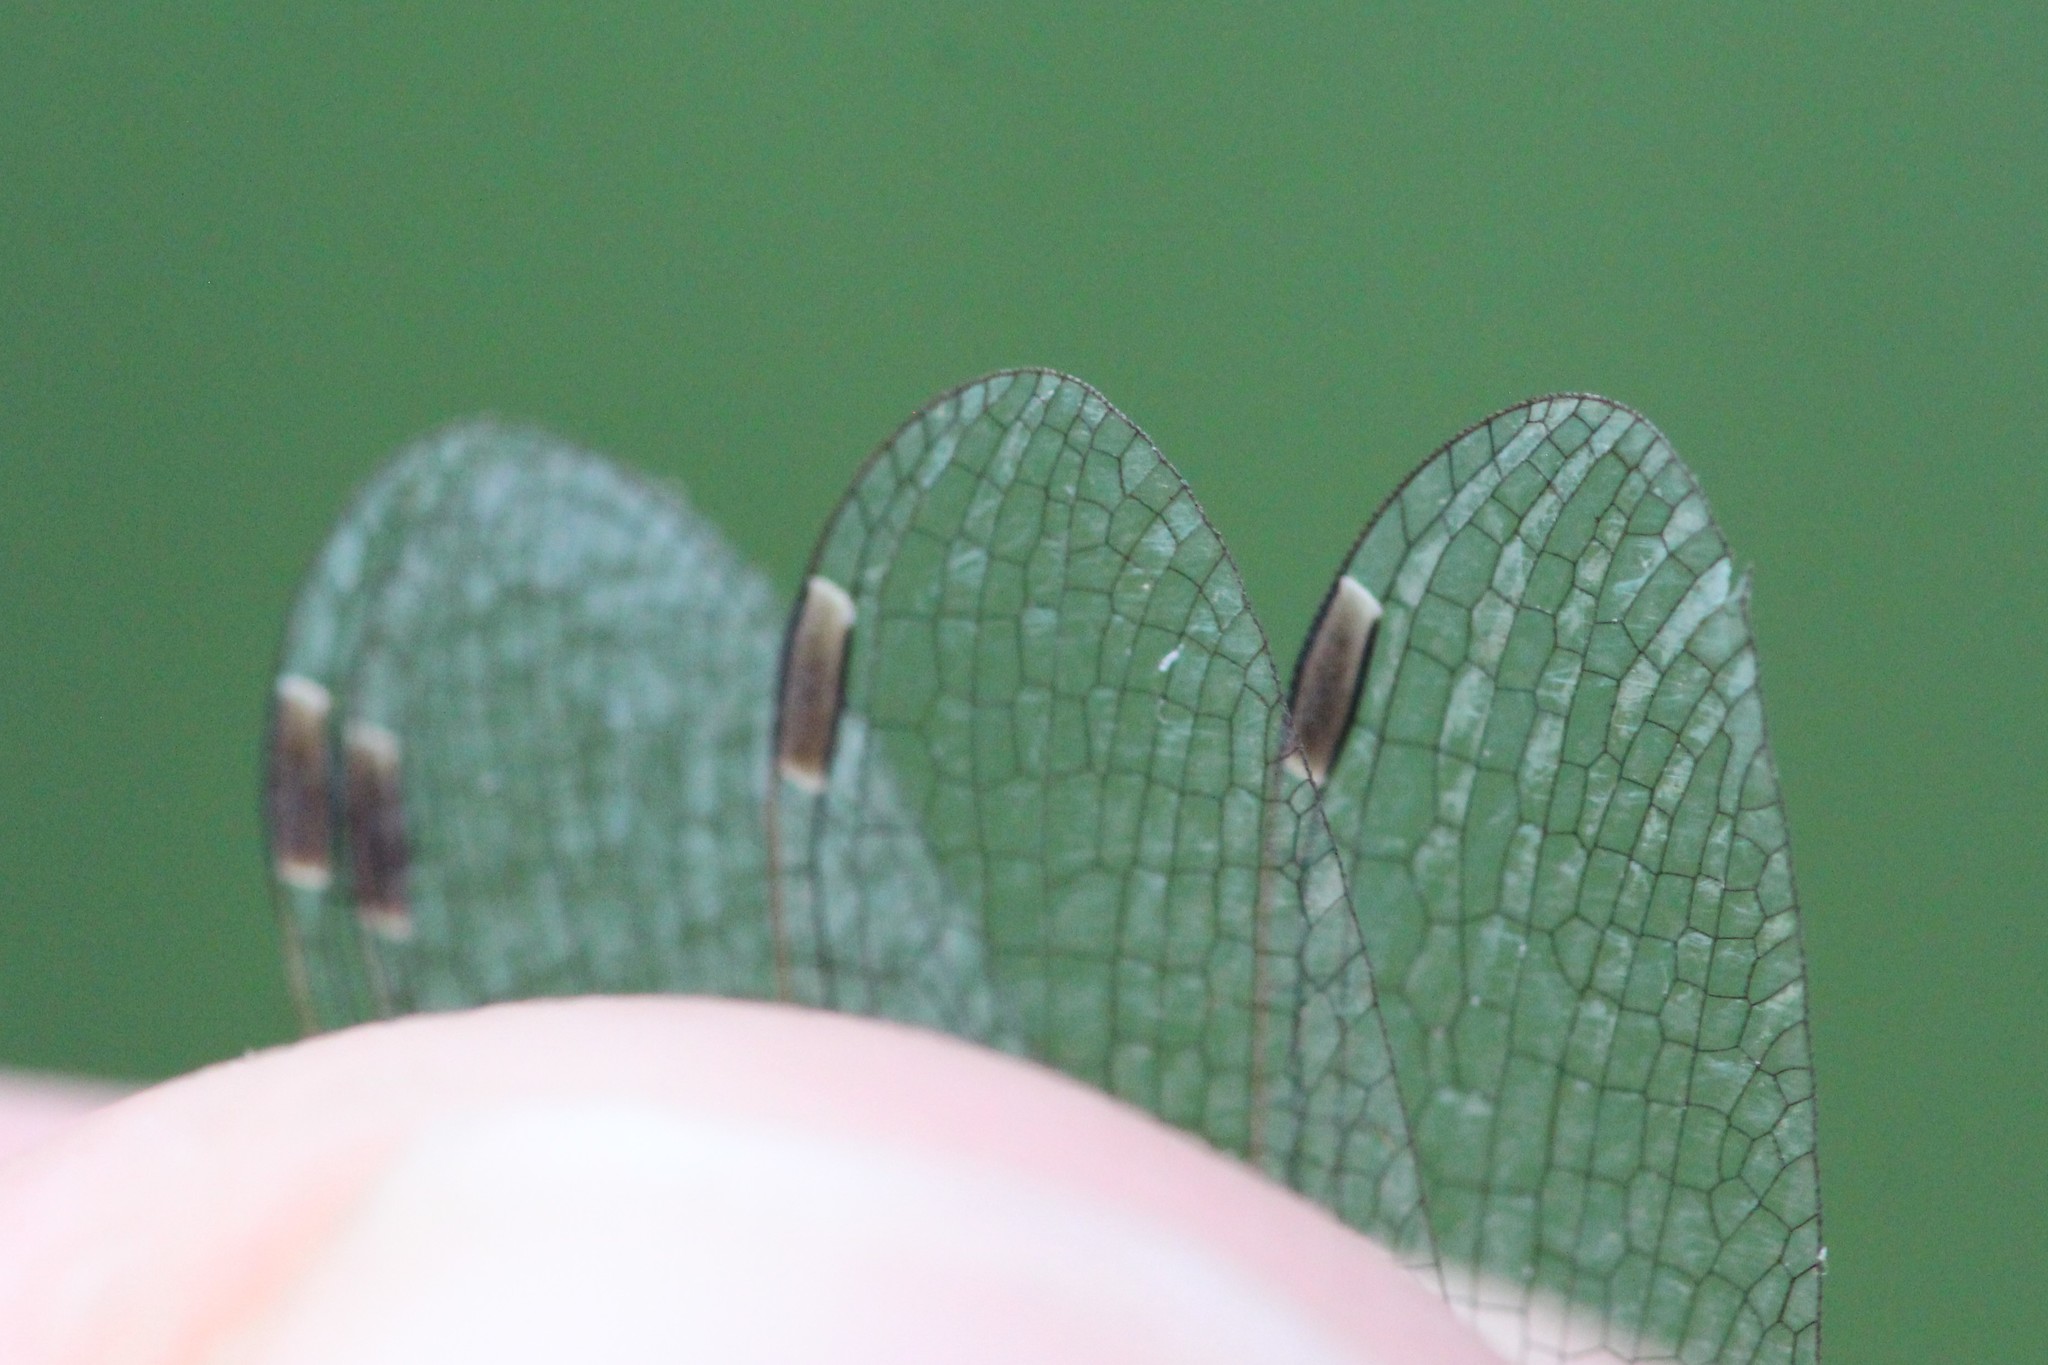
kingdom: Animalia
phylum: Arthropoda
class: Insecta
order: Odonata
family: Lestidae
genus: Lestes
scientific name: Lestes unguiculatus
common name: Lyre-tipped spreadwing
